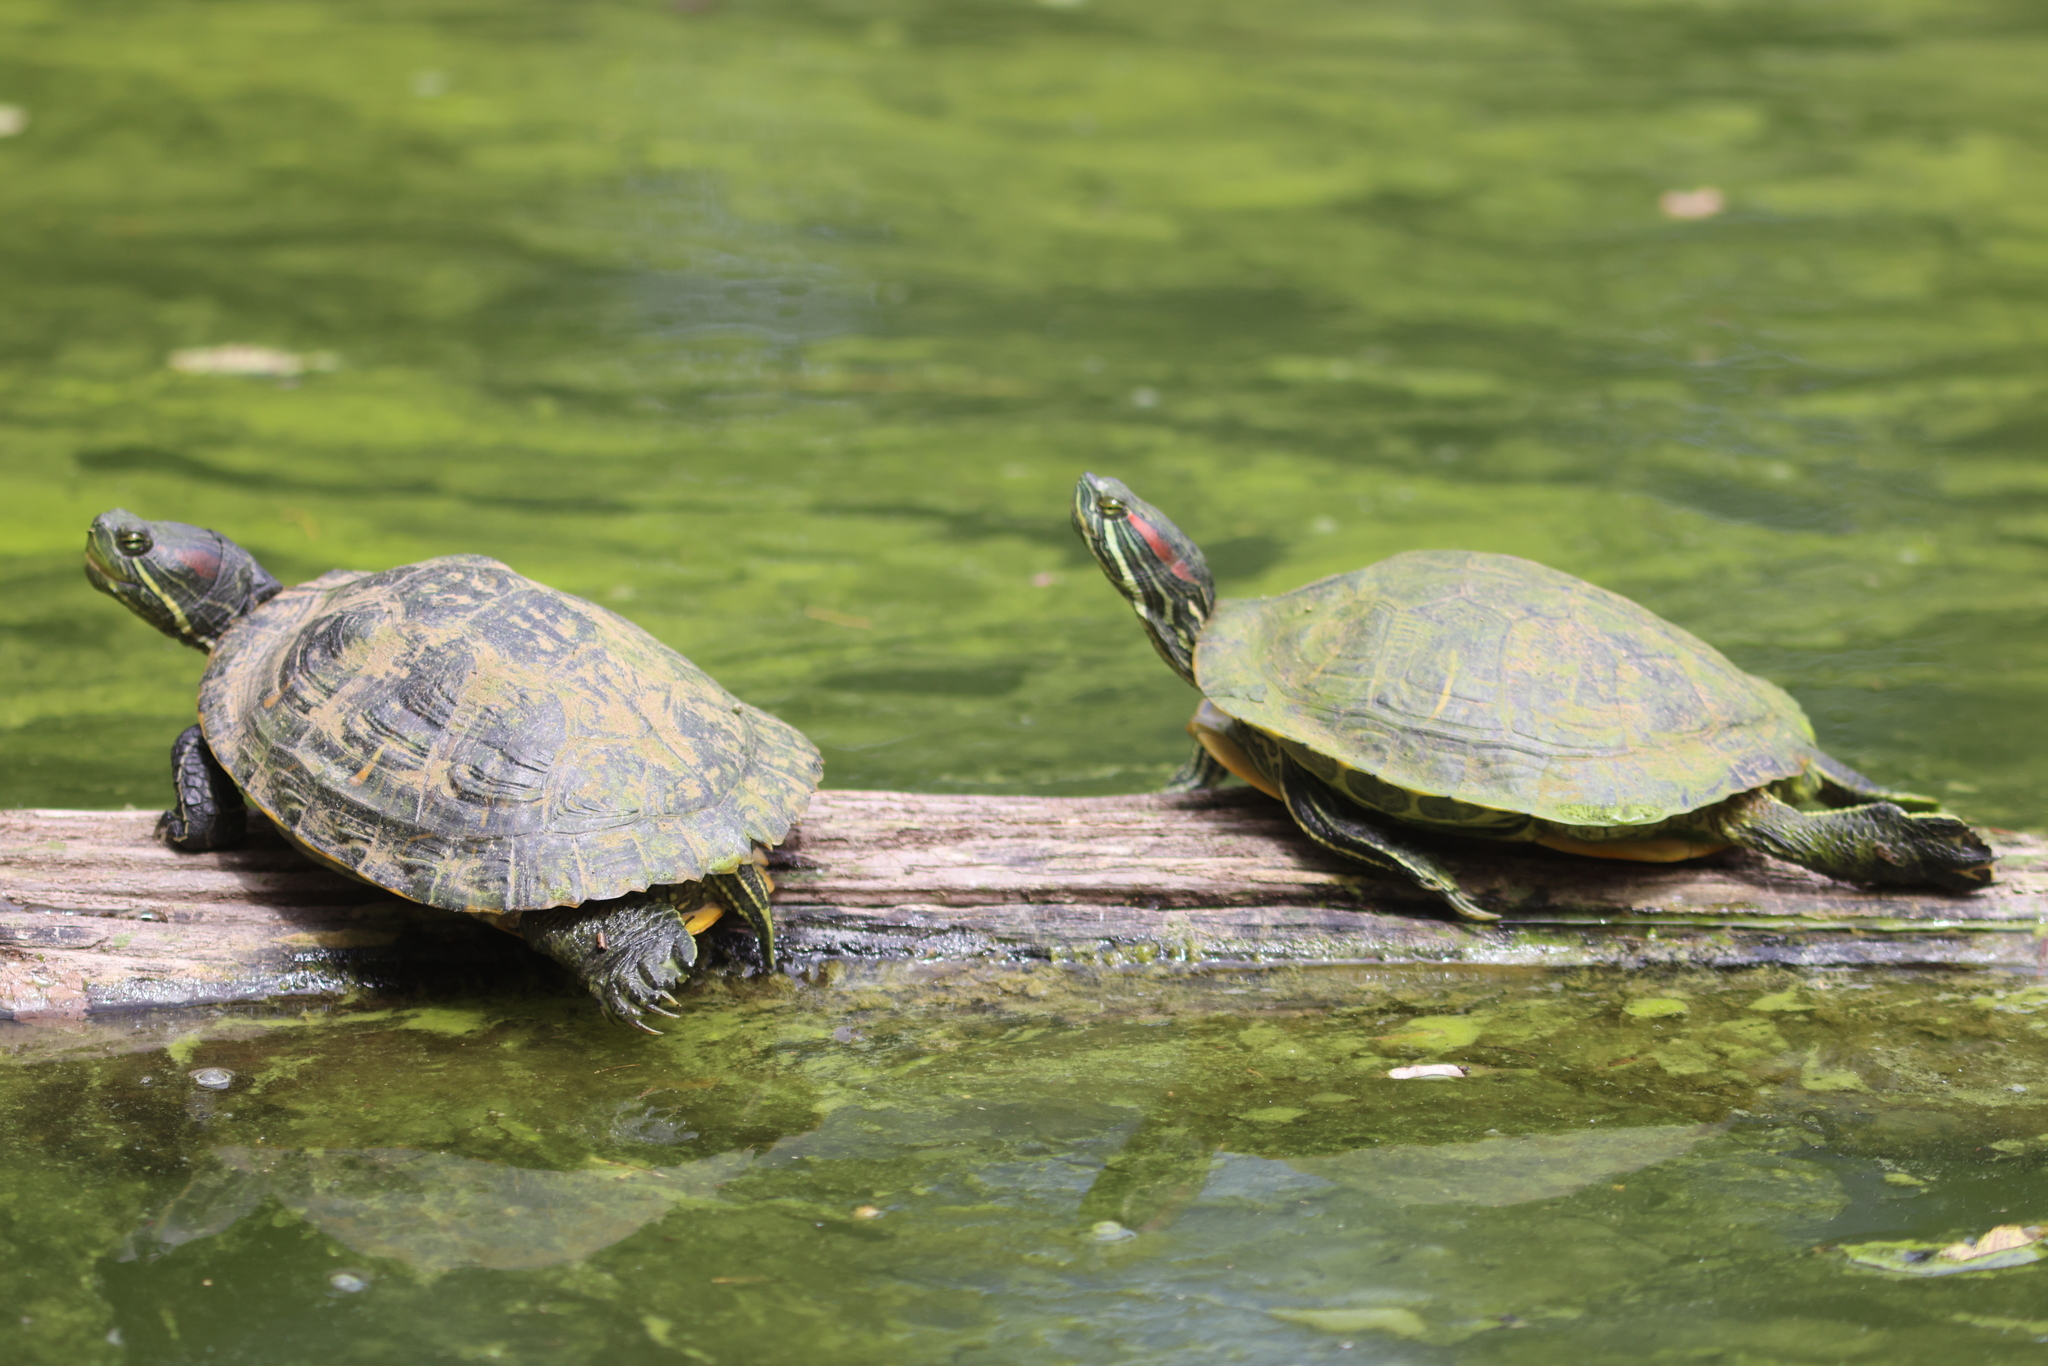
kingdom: Animalia
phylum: Chordata
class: Testudines
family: Emydidae
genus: Trachemys
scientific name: Trachemys scripta
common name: Slider
